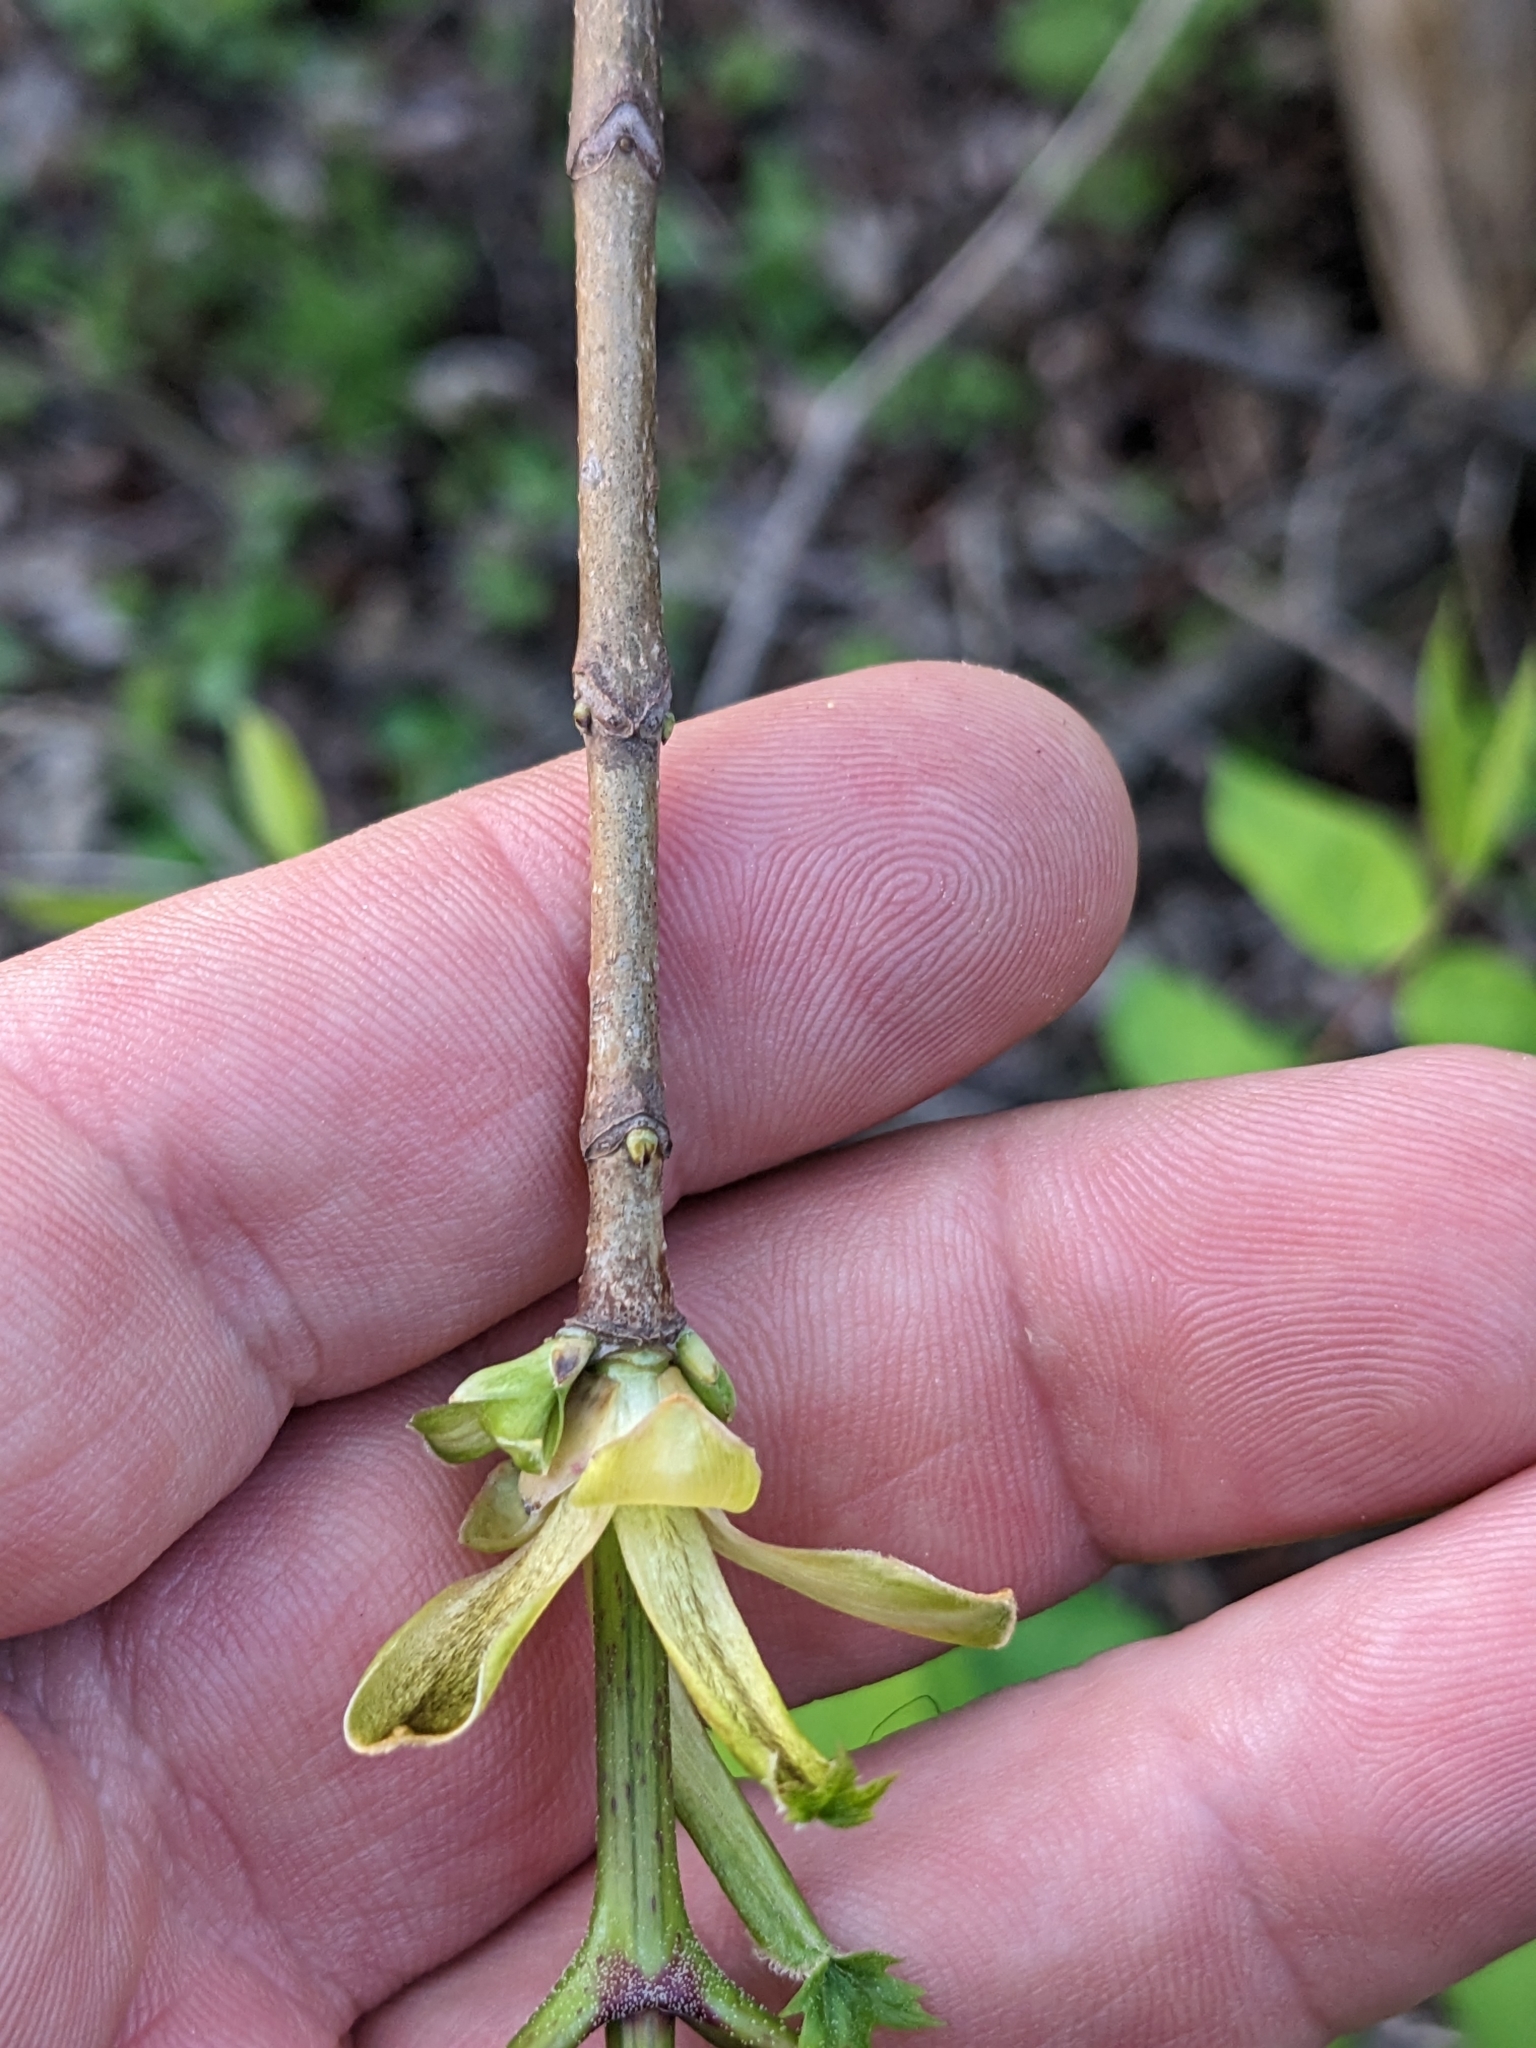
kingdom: Plantae
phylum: Tracheophyta
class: Magnoliopsida
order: Sapindales
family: Sapindaceae
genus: Acer
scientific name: Acer platanoides
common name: Norway maple
